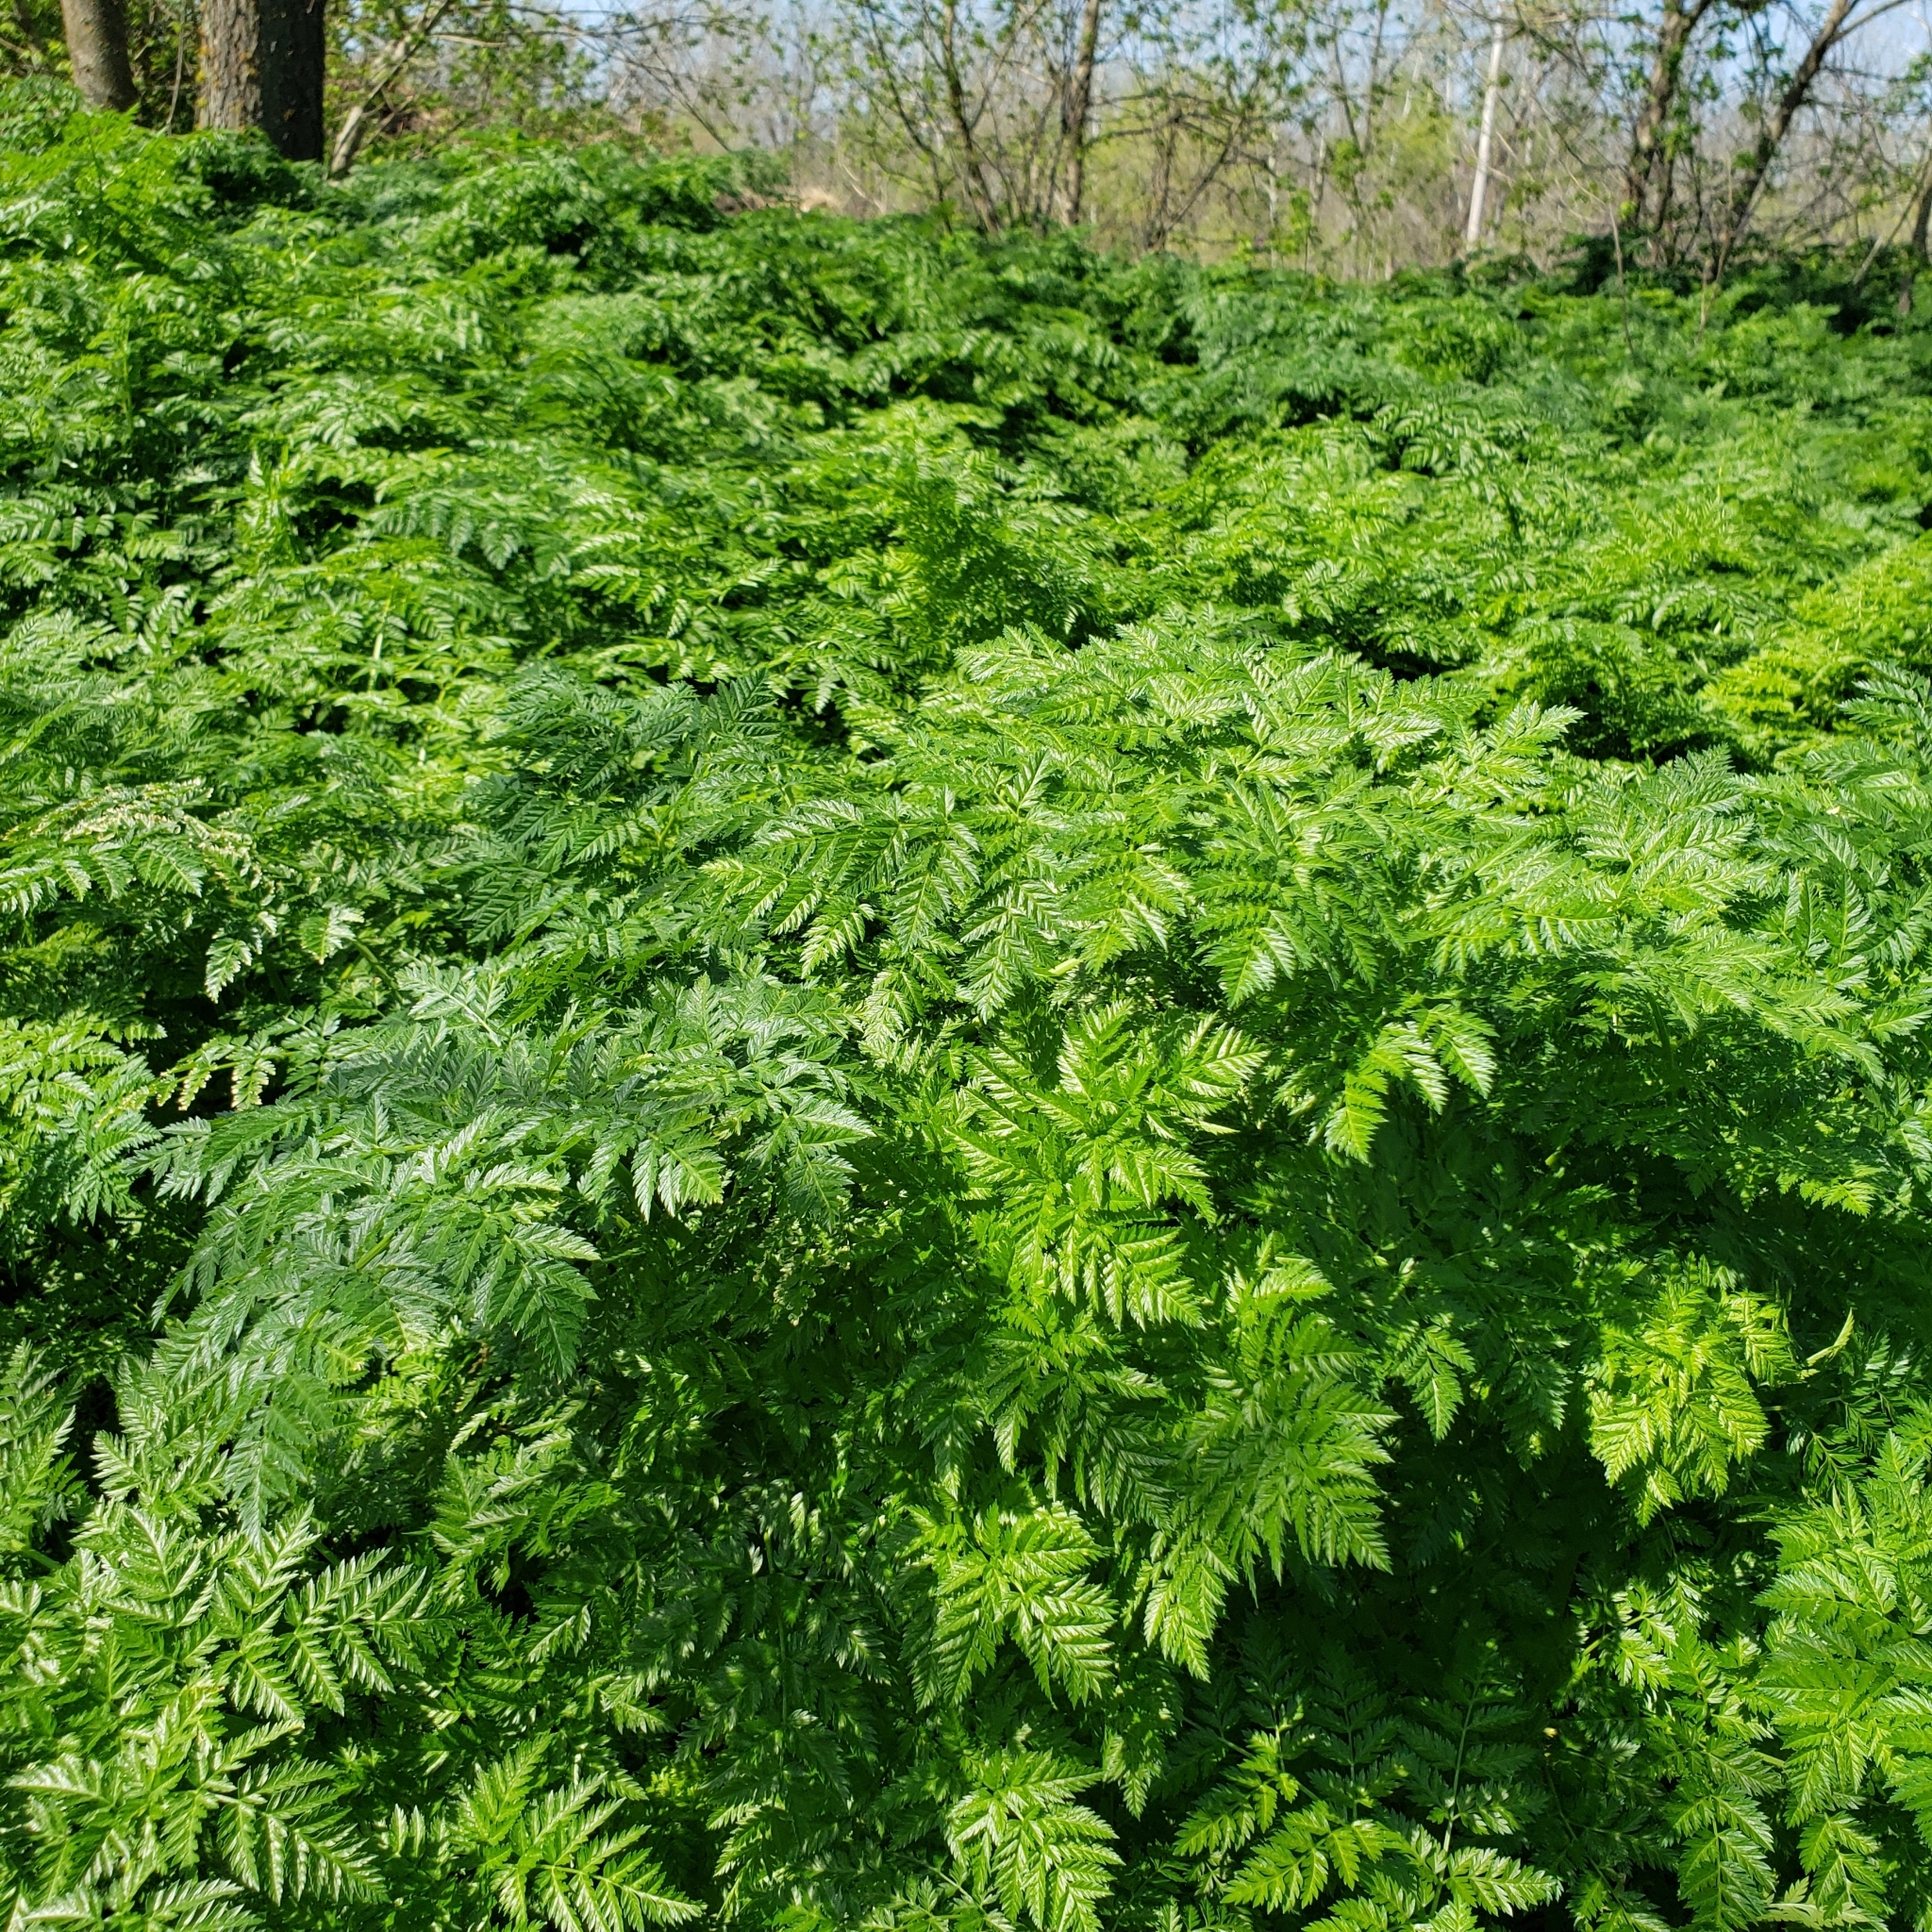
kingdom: Plantae
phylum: Tracheophyta
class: Magnoliopsida
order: Apiales
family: Apiaceae
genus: Conium
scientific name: Conium maculatum
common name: Hemlock
